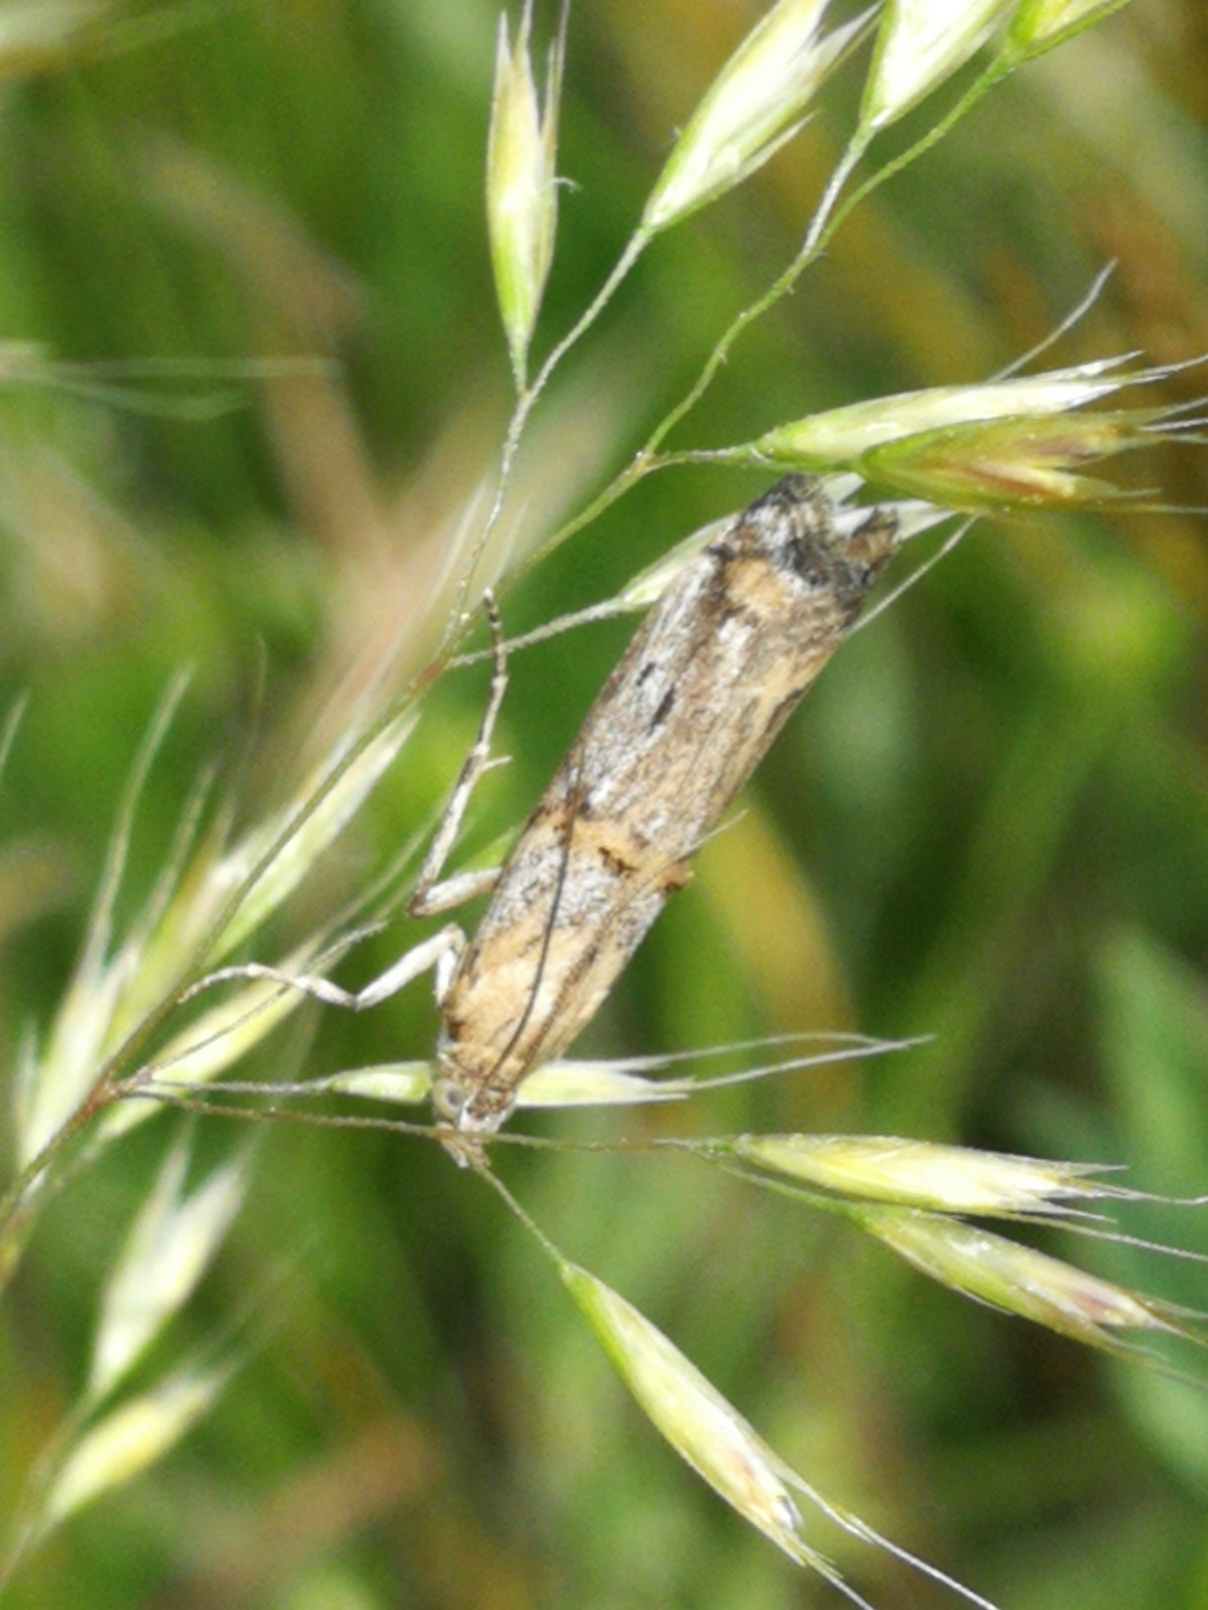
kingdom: Animalia
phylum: Arthropoda
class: Insecta
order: Lepidoptera
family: Pyralidae
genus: Asalebria
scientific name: Asalebria florella
